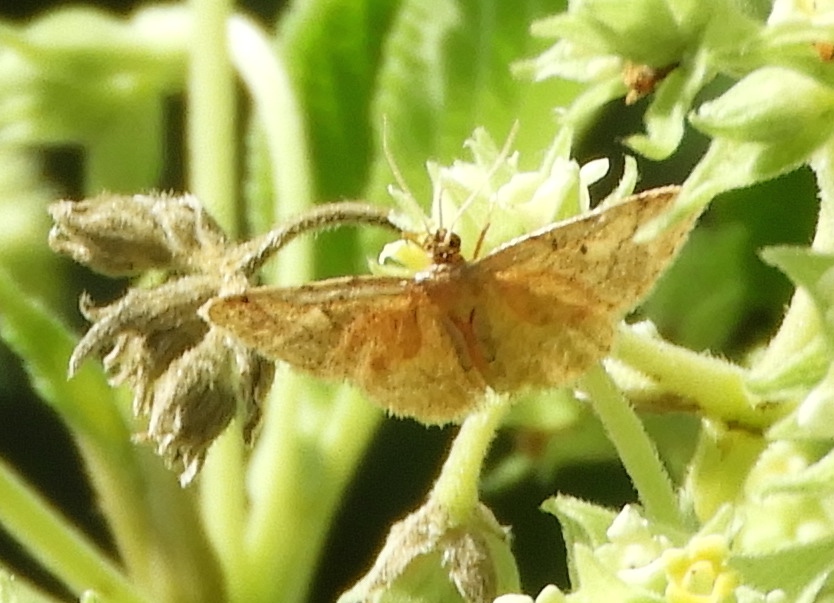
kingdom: Animalia
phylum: Arthropoda
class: Insecta
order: Lepidoptera
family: Geometridae
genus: Idaea
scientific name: Idaea
